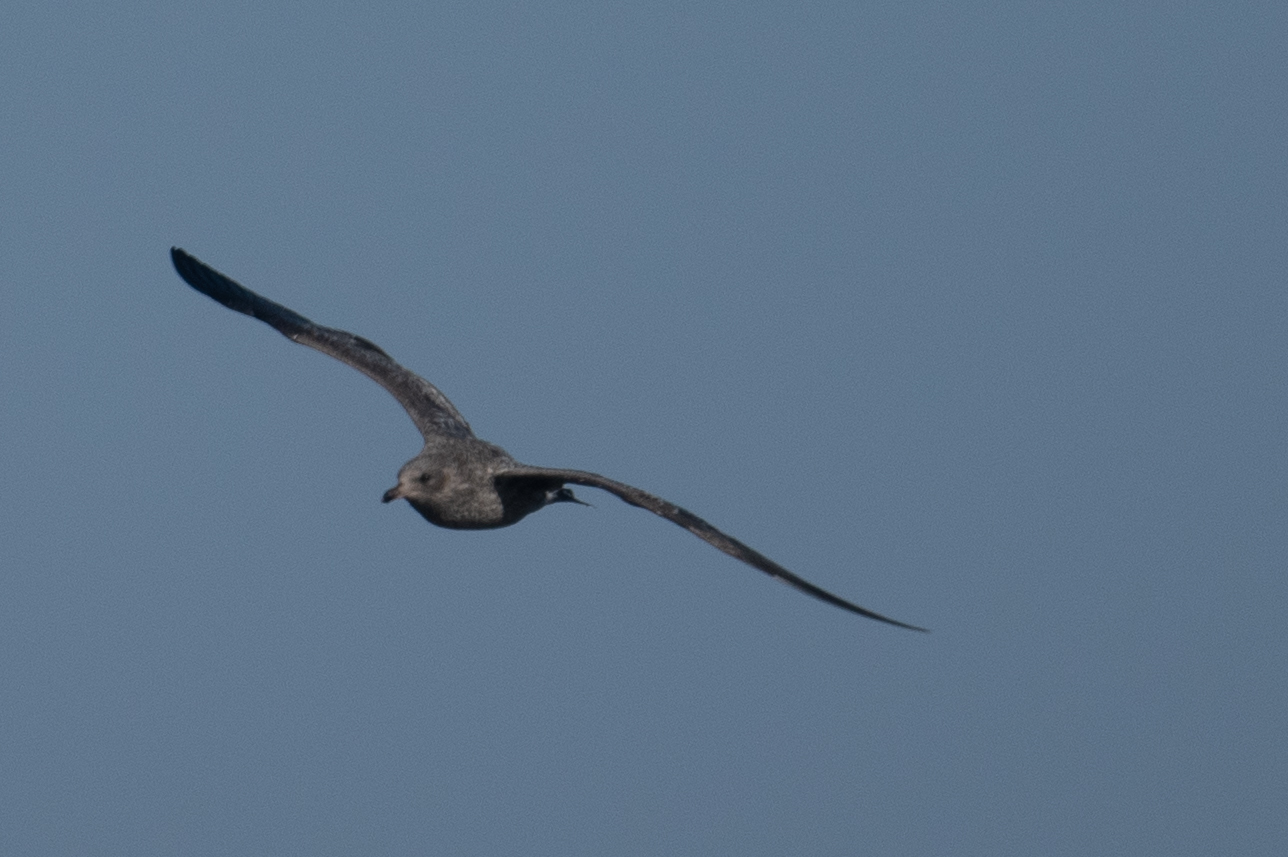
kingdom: Animalia
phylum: Chordata
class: Aves
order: Charadriiformes
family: Laridae
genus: Larus
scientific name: Larus occidentalis
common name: Western gull
